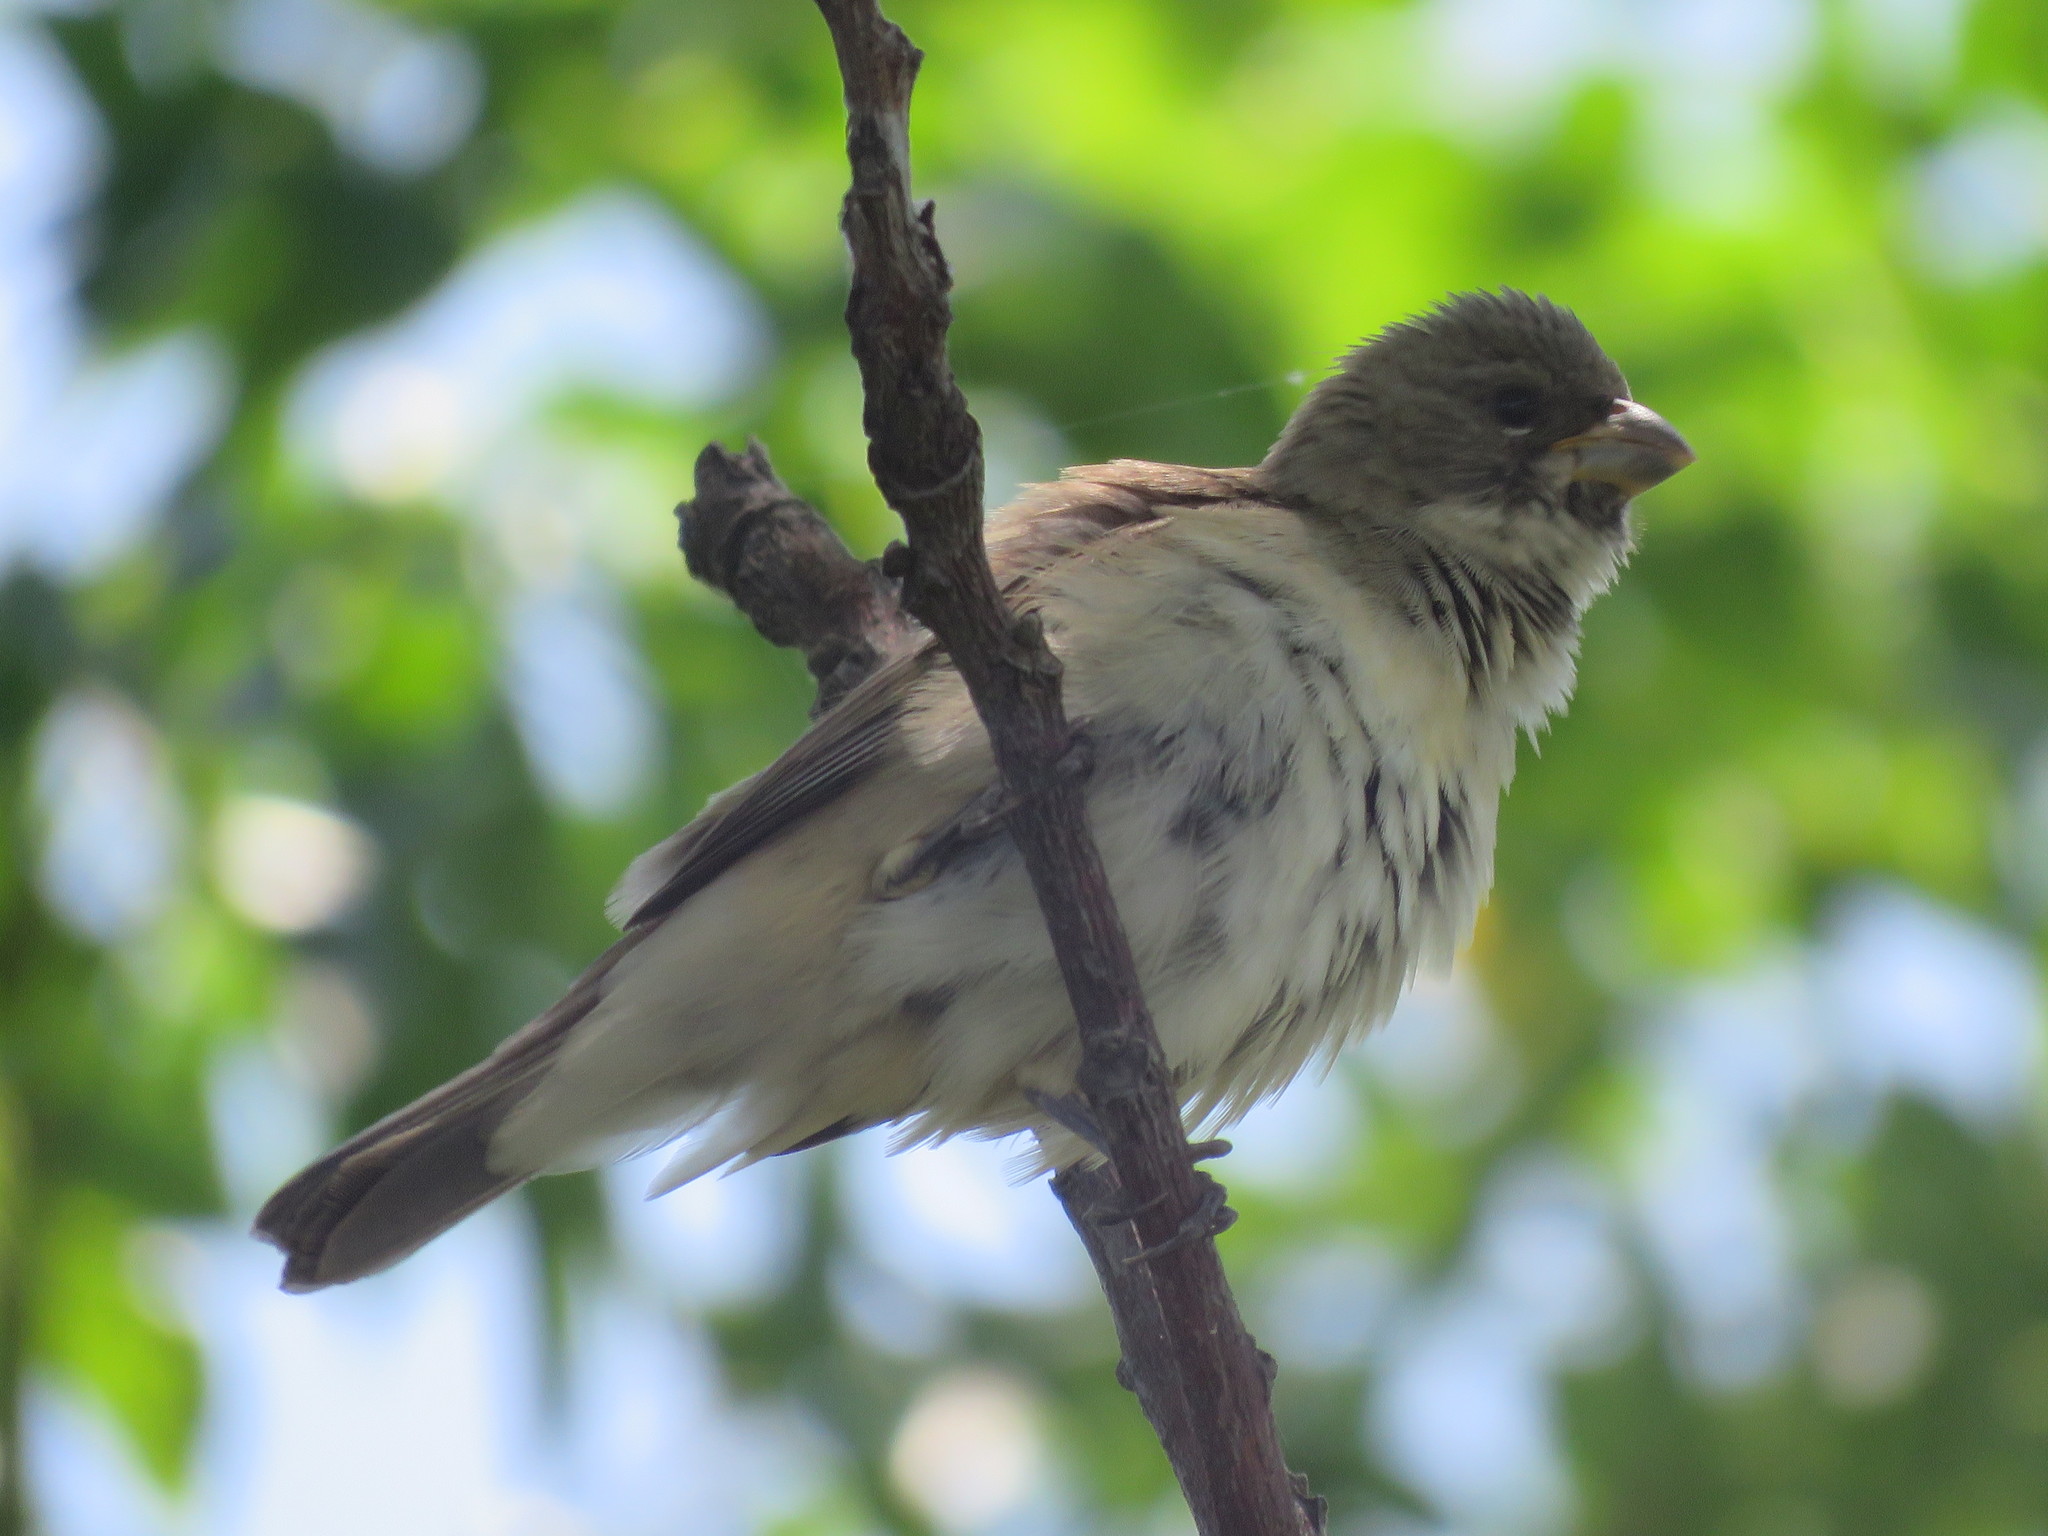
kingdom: Animalia
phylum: Chordata
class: Aves
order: Passeriformes
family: Thraupidae
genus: Sporophila
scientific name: Sporophila caerulescens
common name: Double-collared seedeater
